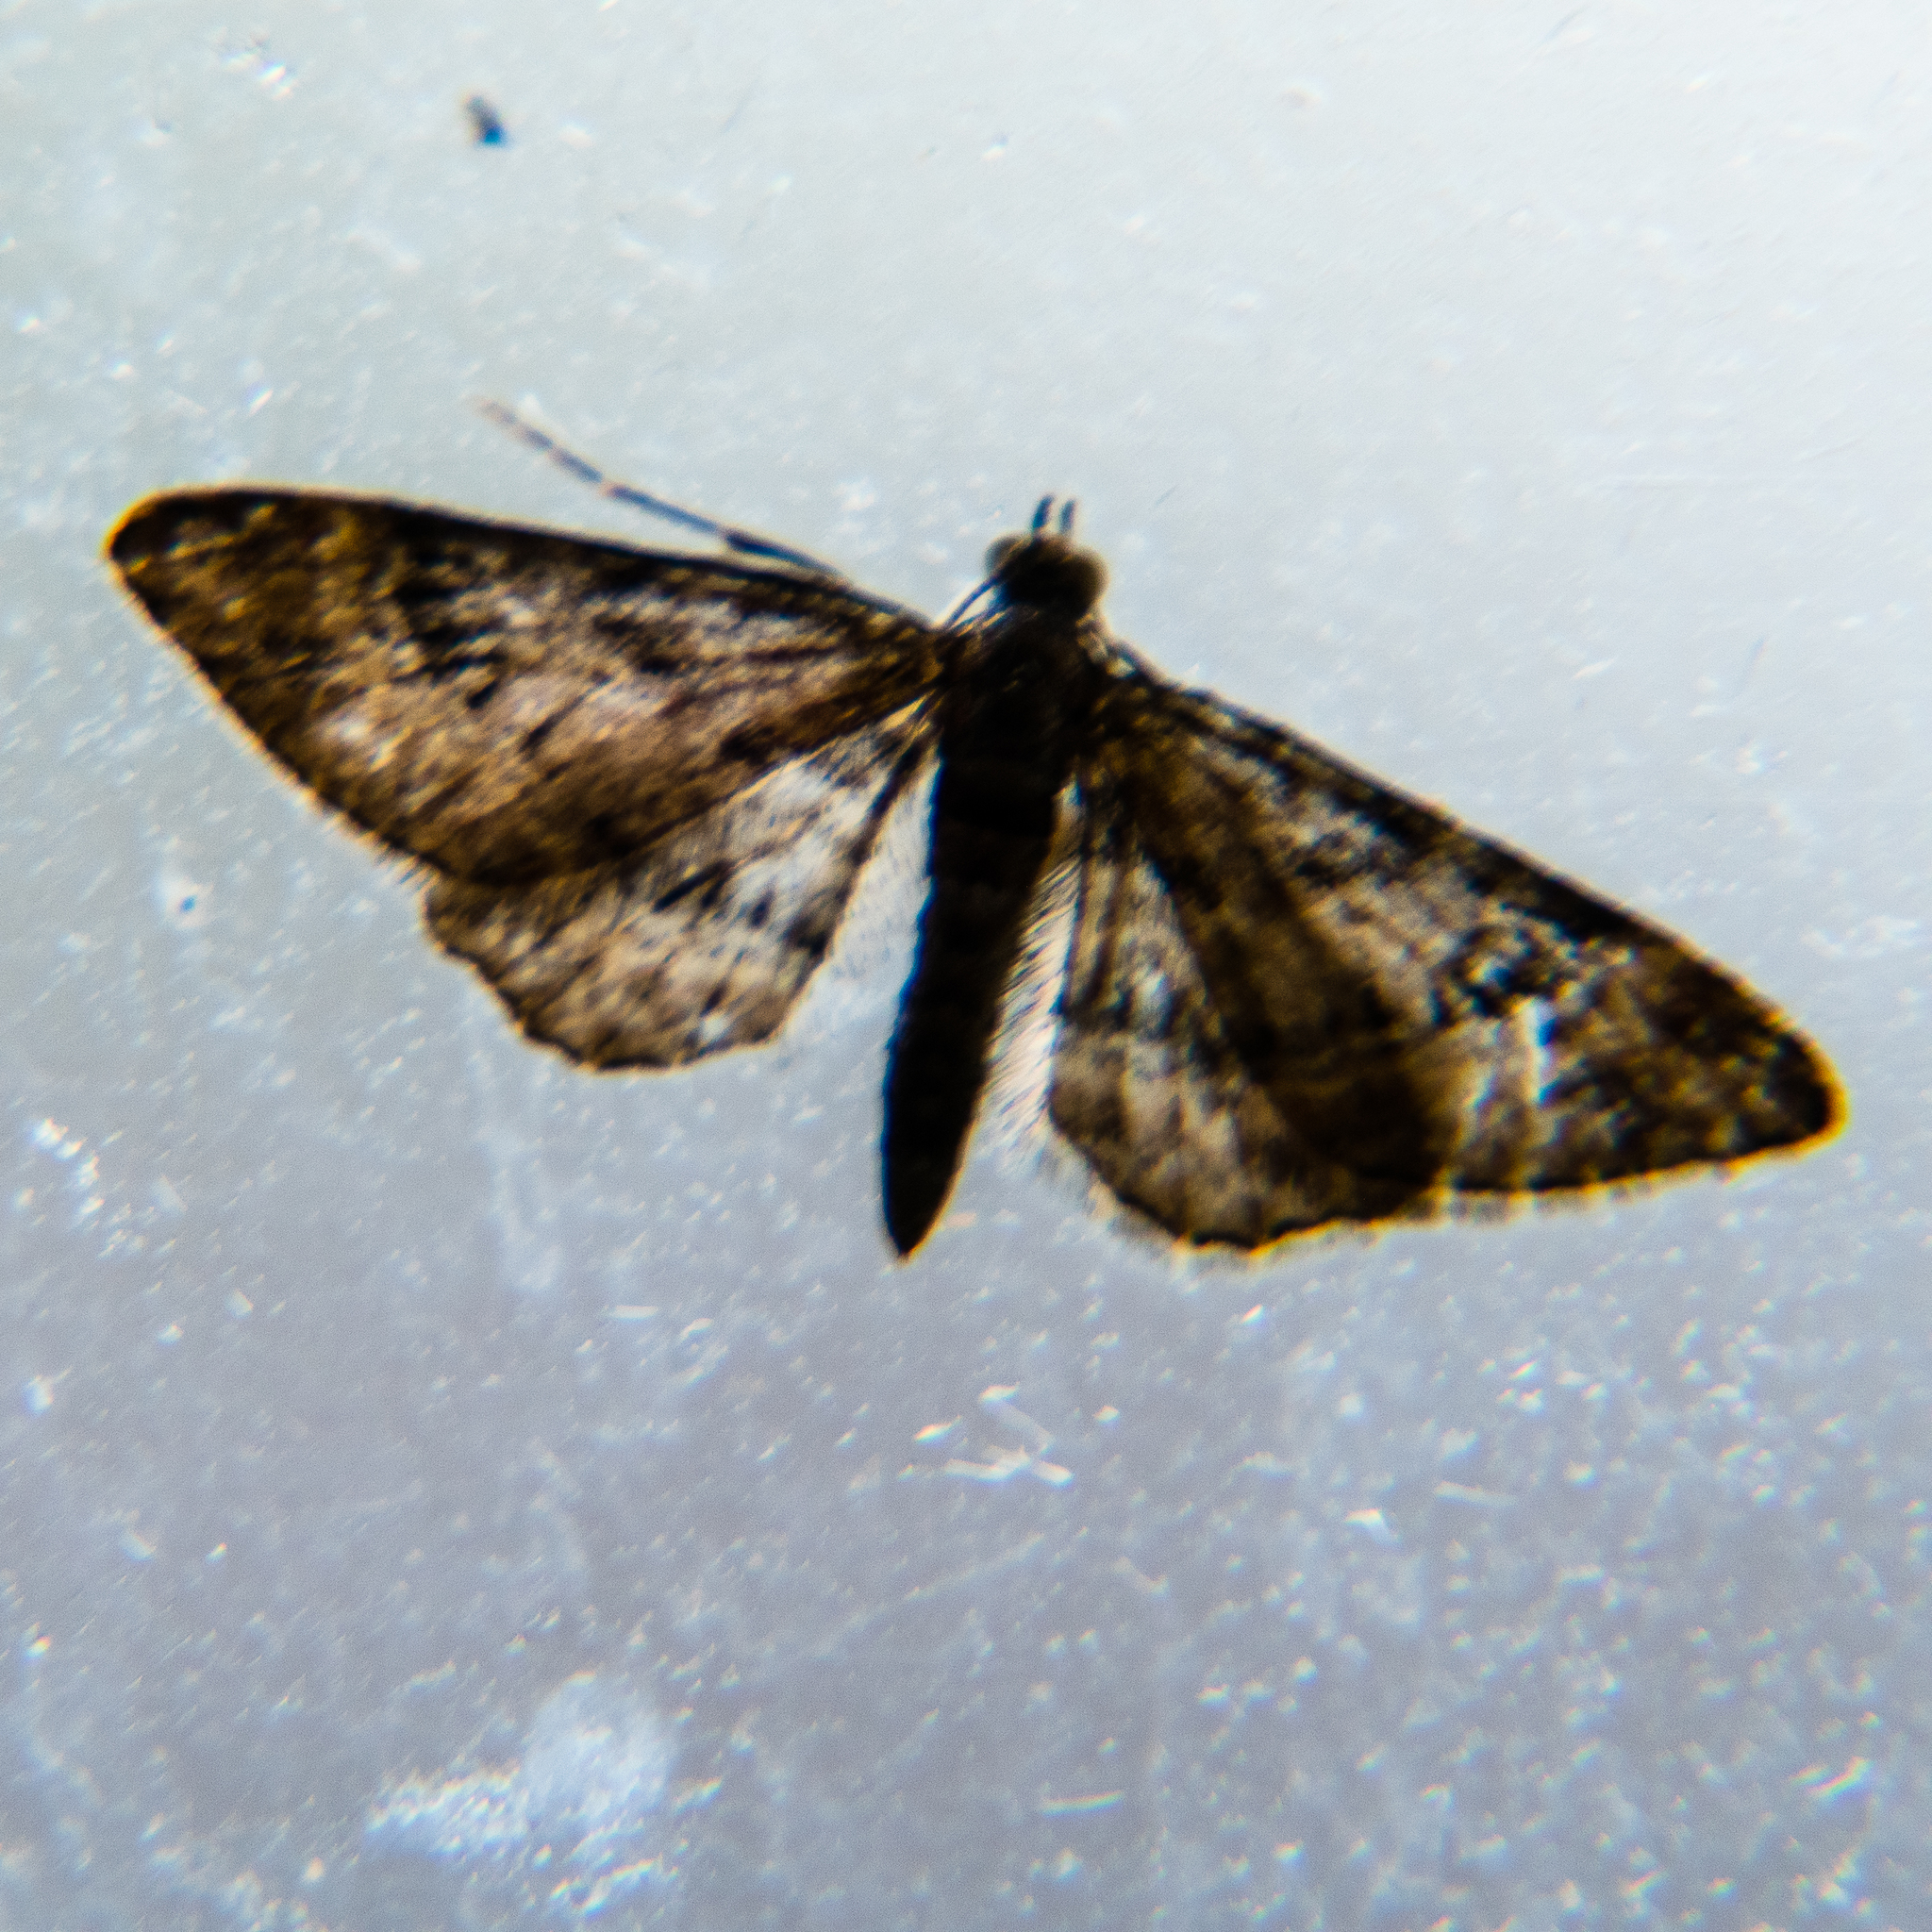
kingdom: Animalia
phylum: Arthropoda
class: Insecta
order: Lepidoptera
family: Geometridae
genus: Gymnoscelis
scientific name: Gymnoscelis rufifasciata
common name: Double-striped pug
